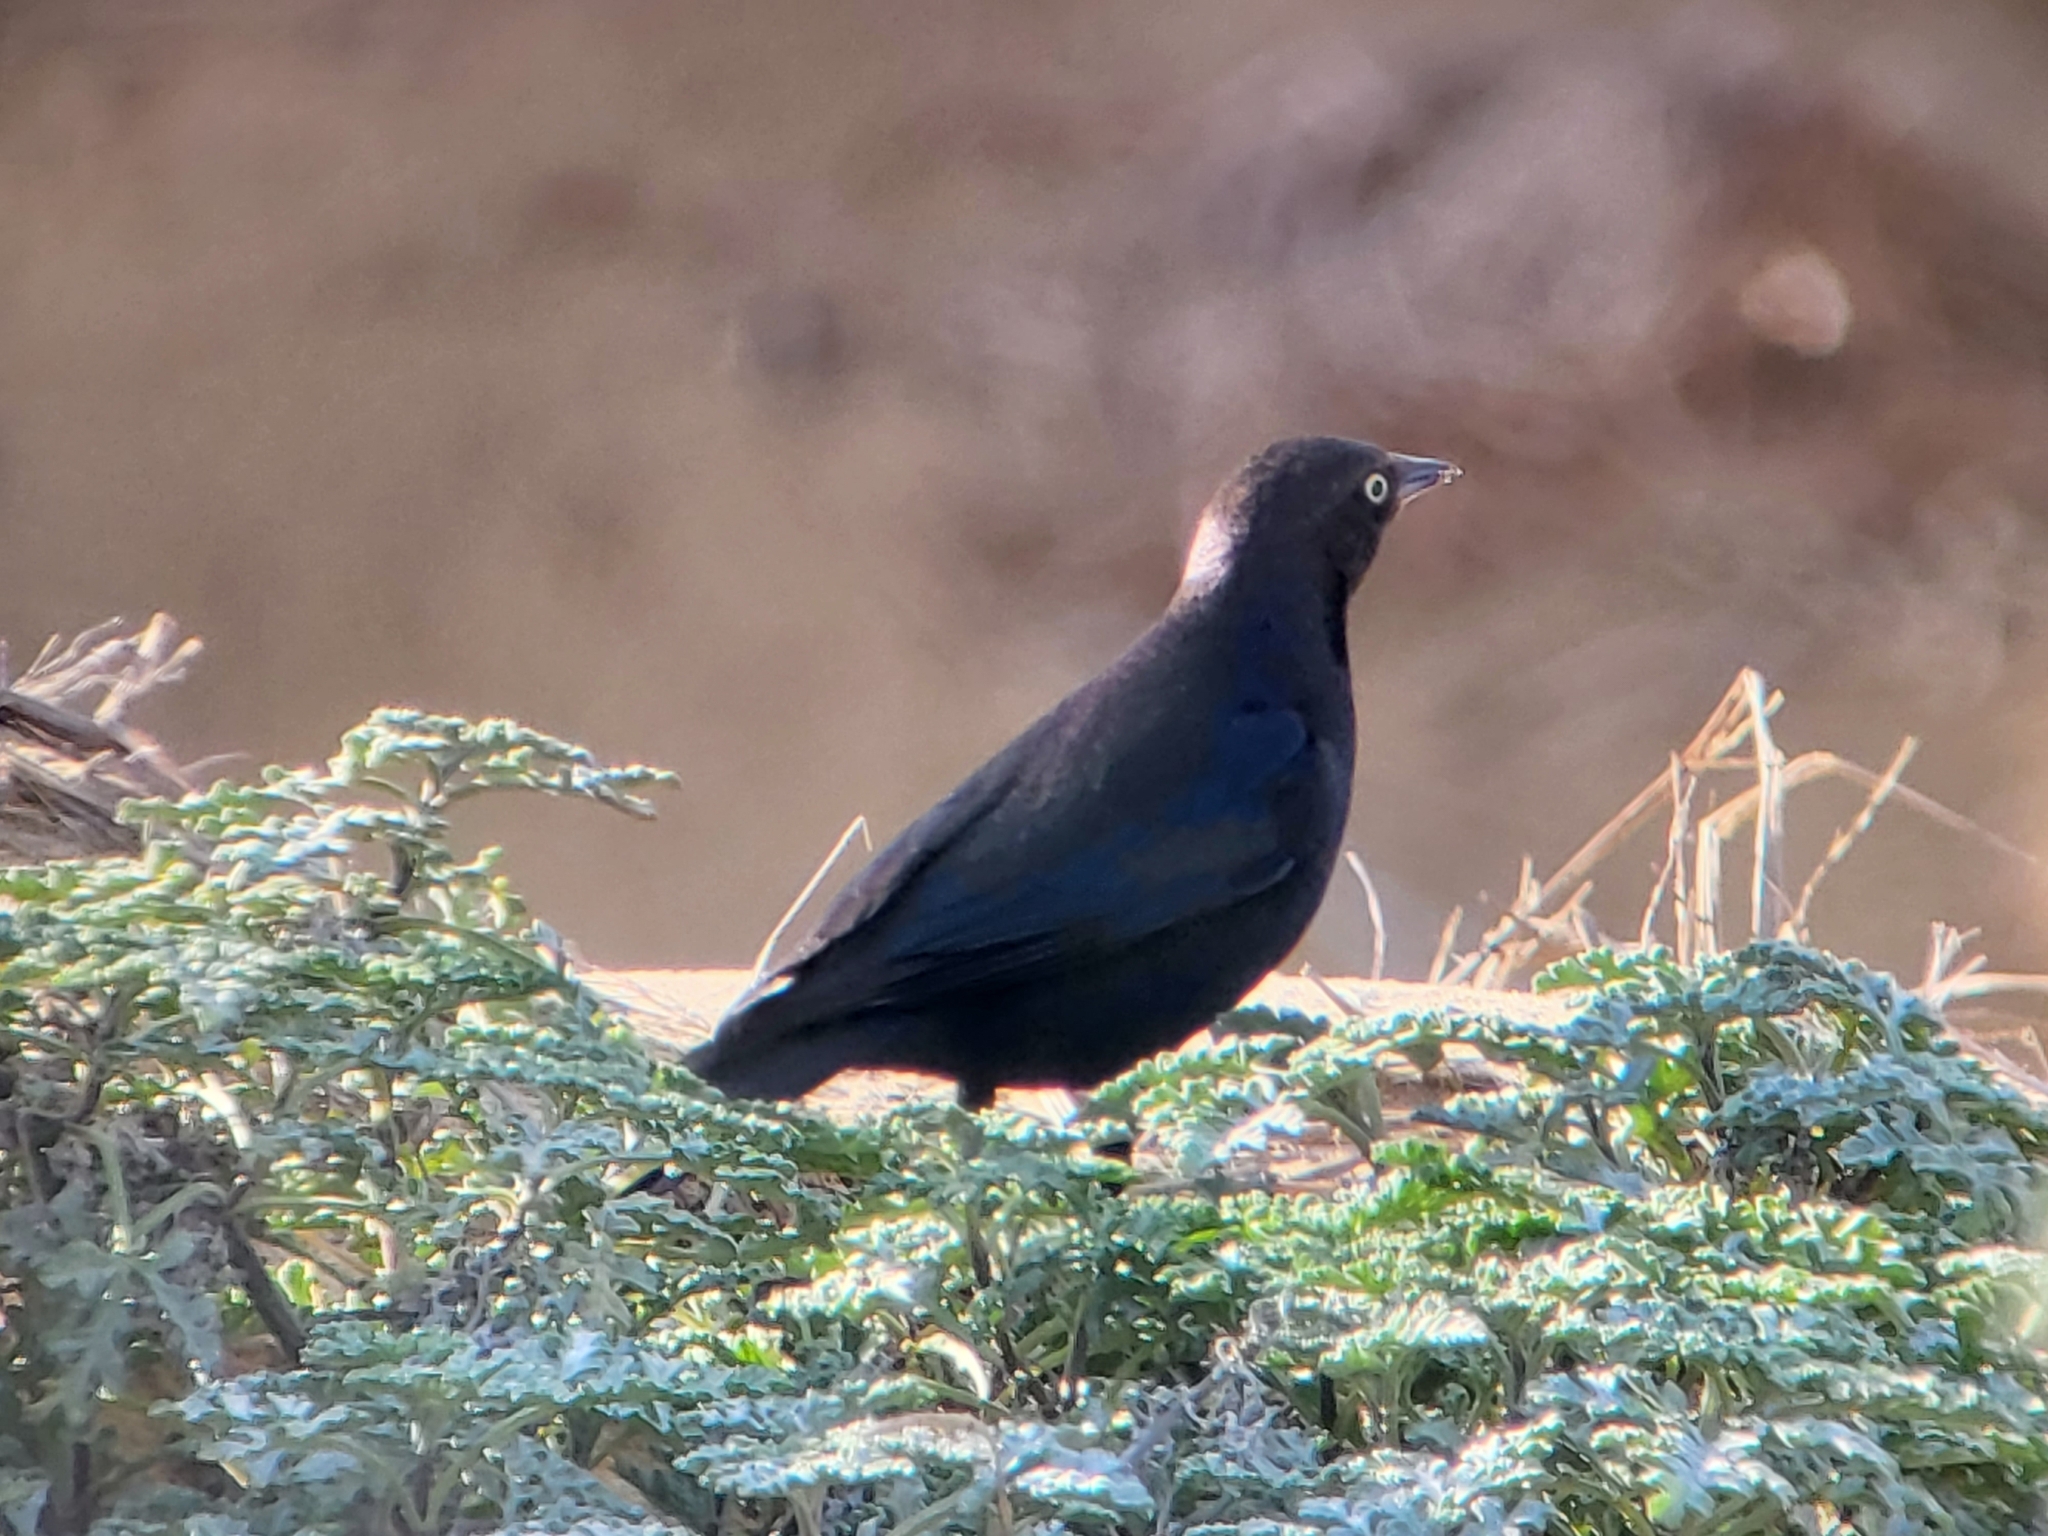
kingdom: Animalia
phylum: Chordata
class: Aves
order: Passeriformes
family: Icteridae
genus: Euphagus
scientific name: Euphagus cyanocephalus
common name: Brewer's blackbird
